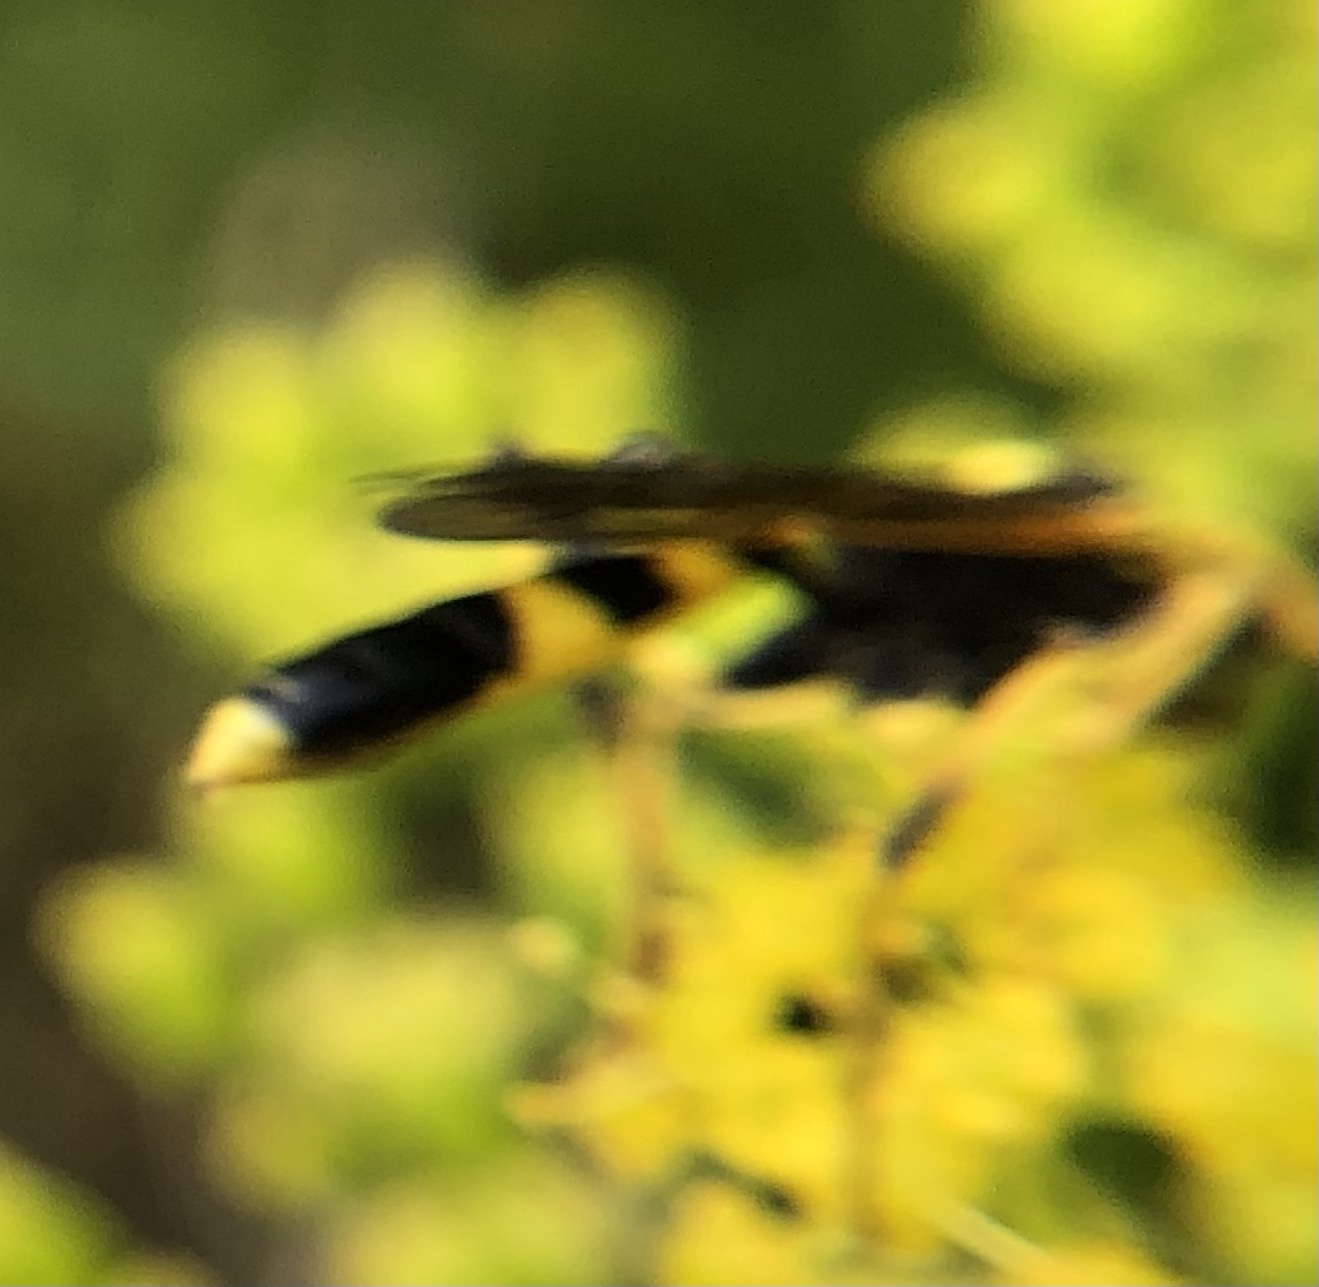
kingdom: Animalia
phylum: Arthropoda
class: Insecta
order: Hymenoptera
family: Ichneumonidae
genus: Amblyteles
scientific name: Amblyteles armatorius
